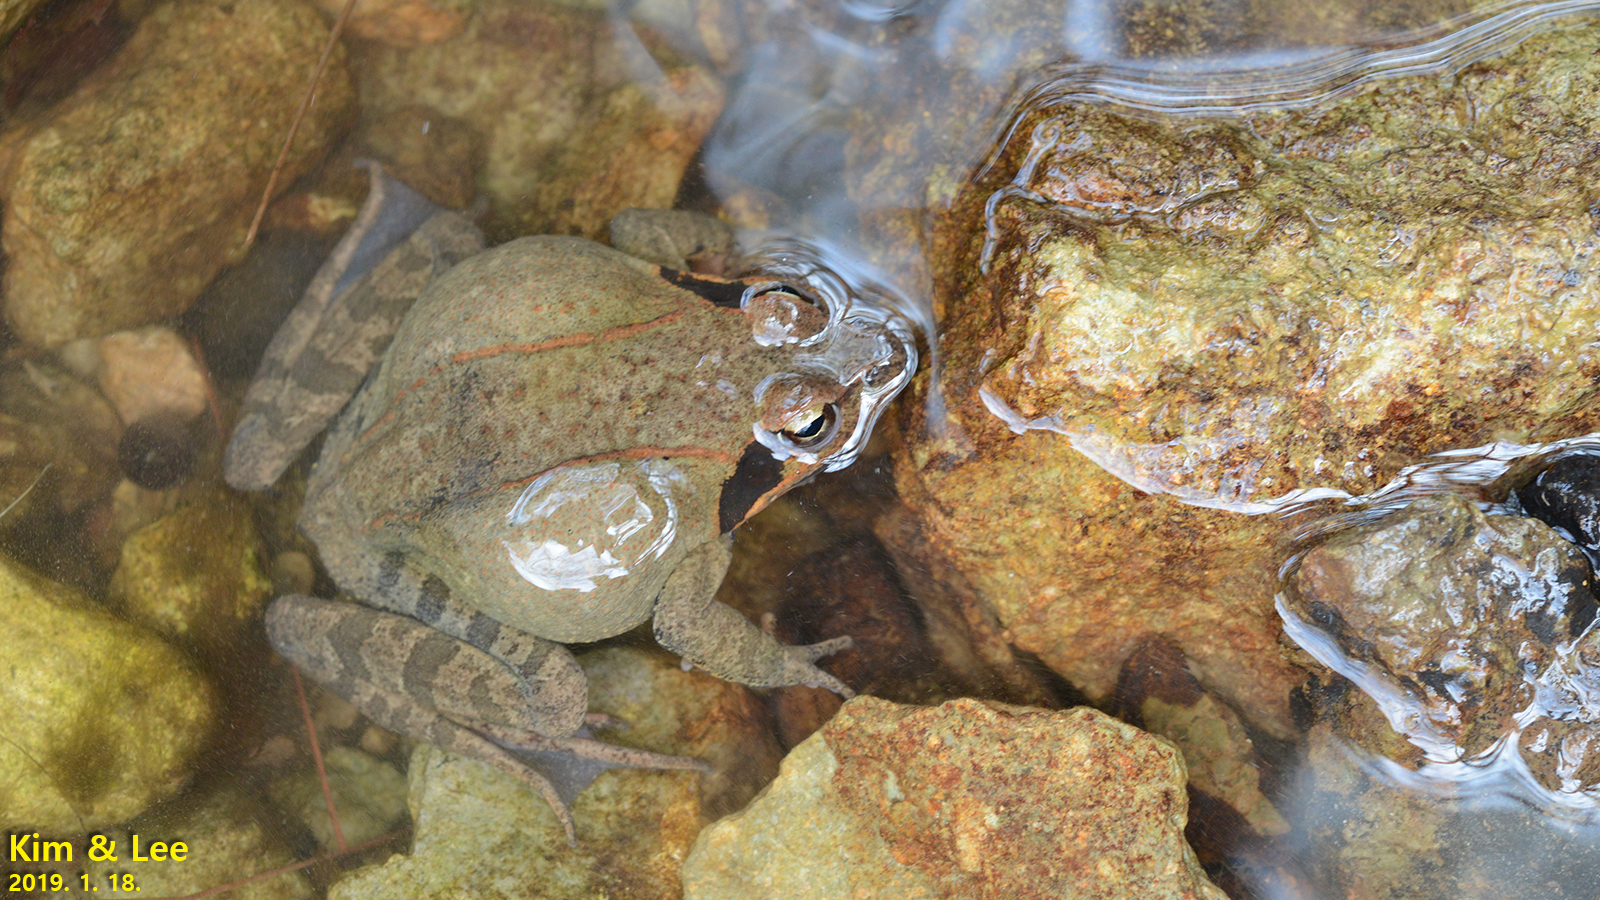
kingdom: Animalia
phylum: Chordata
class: Amphibia
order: Anura
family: Ranidae
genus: Rana
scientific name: Rana uenoi
